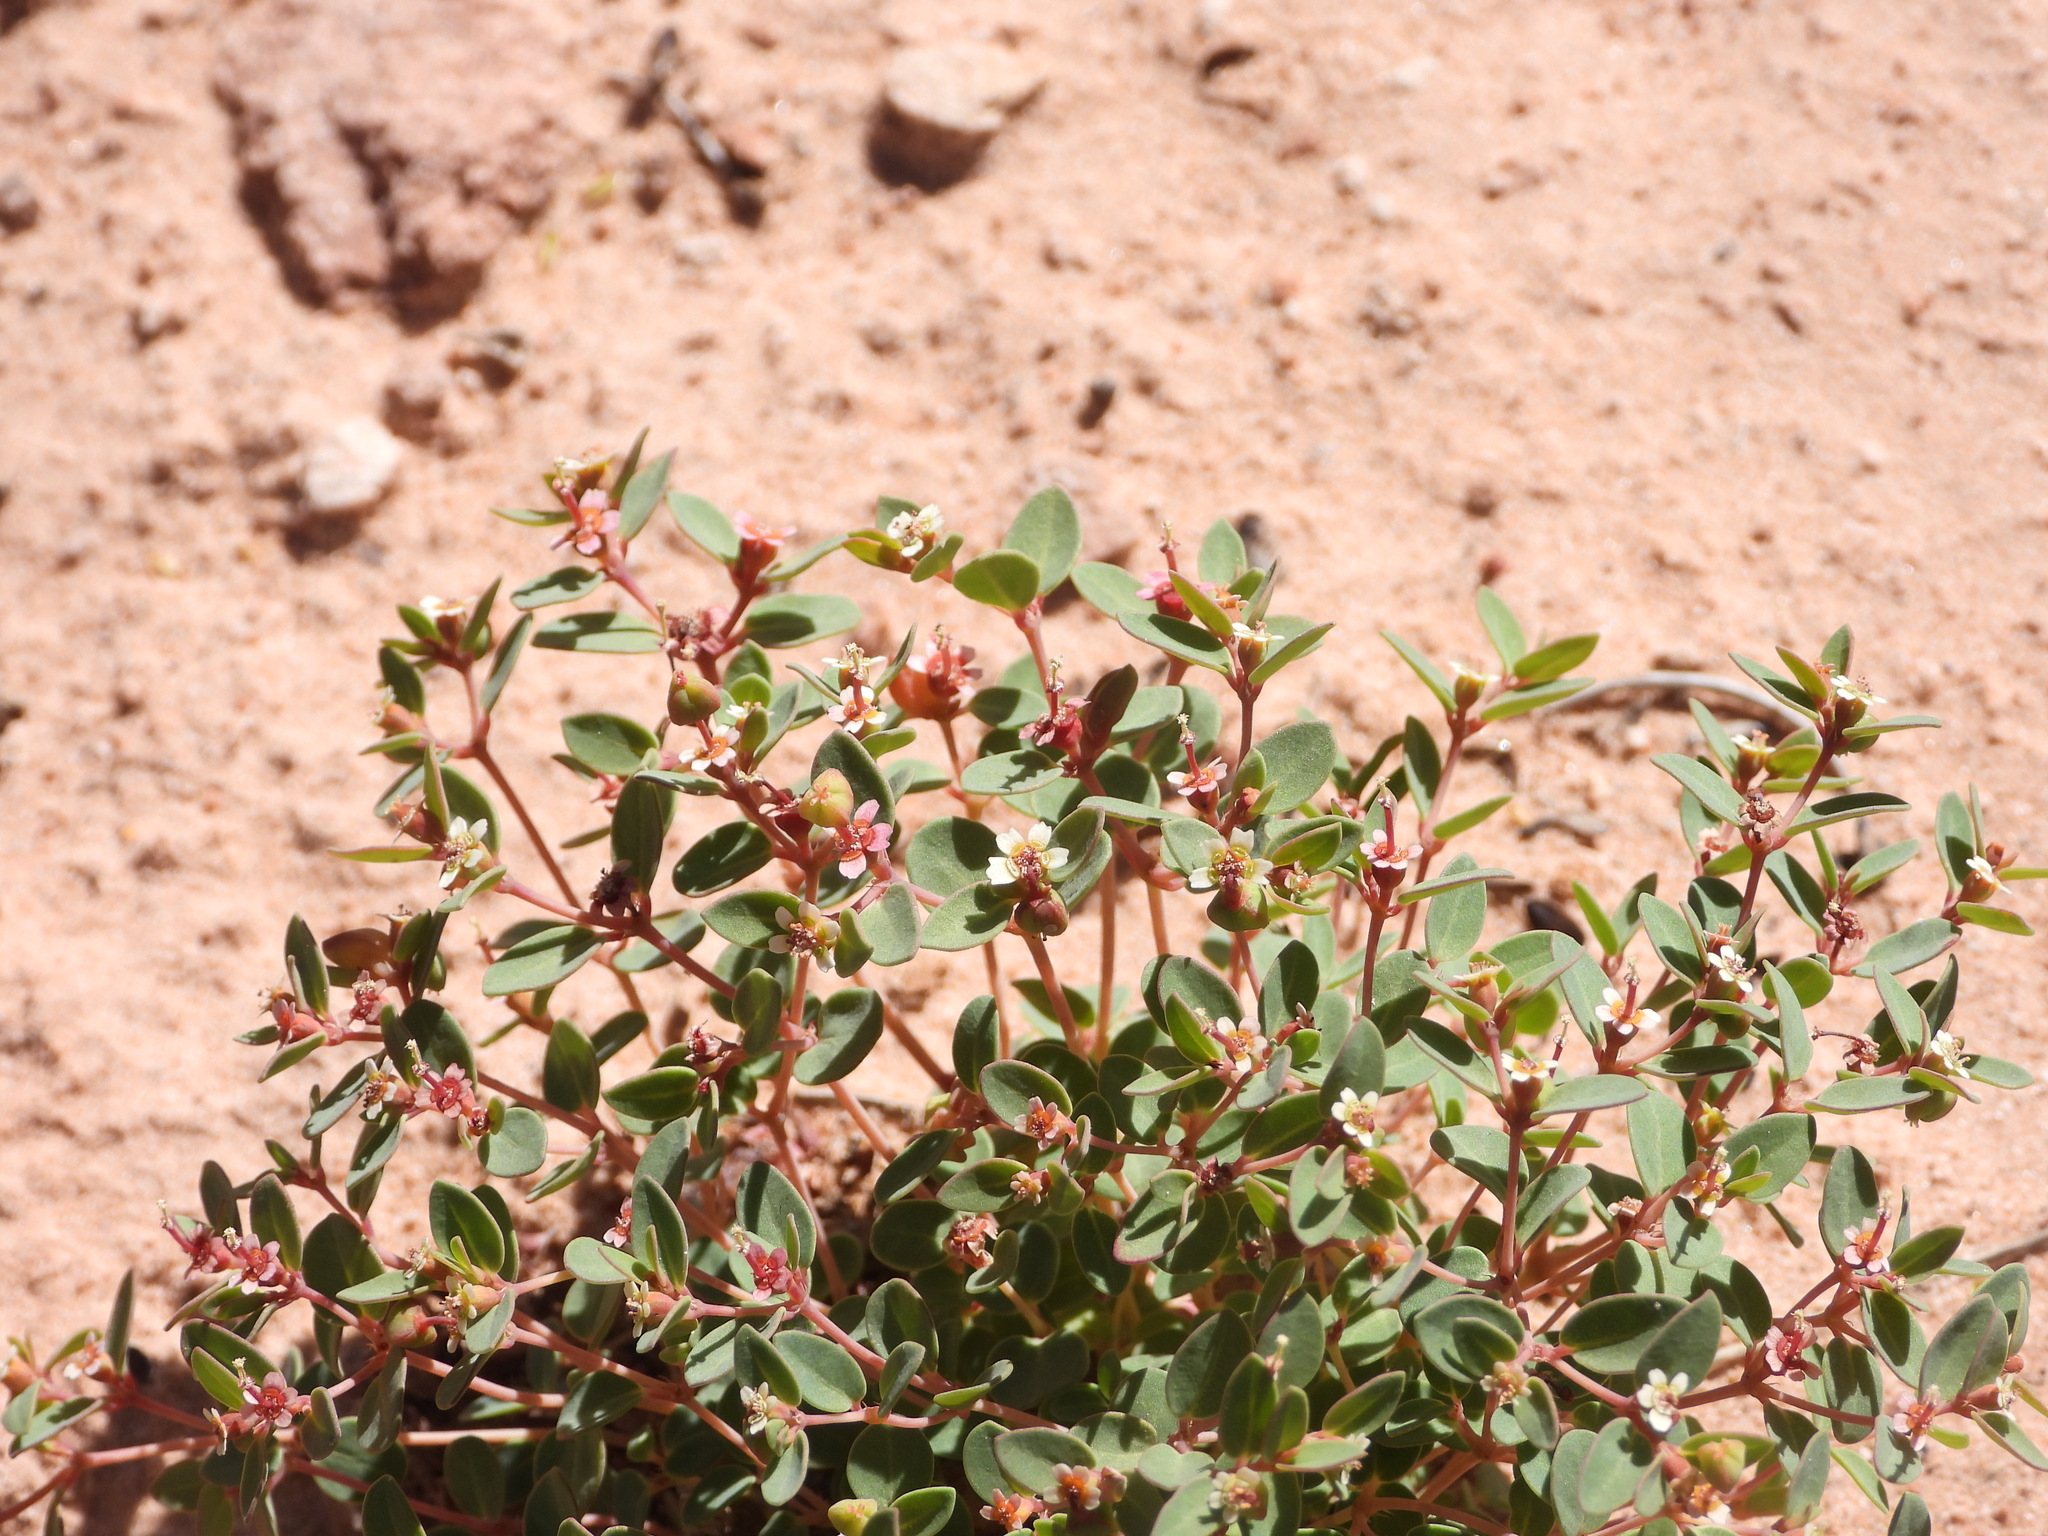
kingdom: Plantae
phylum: Tracheophyta
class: Magnoliopsida
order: Malpighiales
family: Euphorbiaceae
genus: Euphorbia
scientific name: Euphorbia fendleri
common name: Fendler's euphorbia
